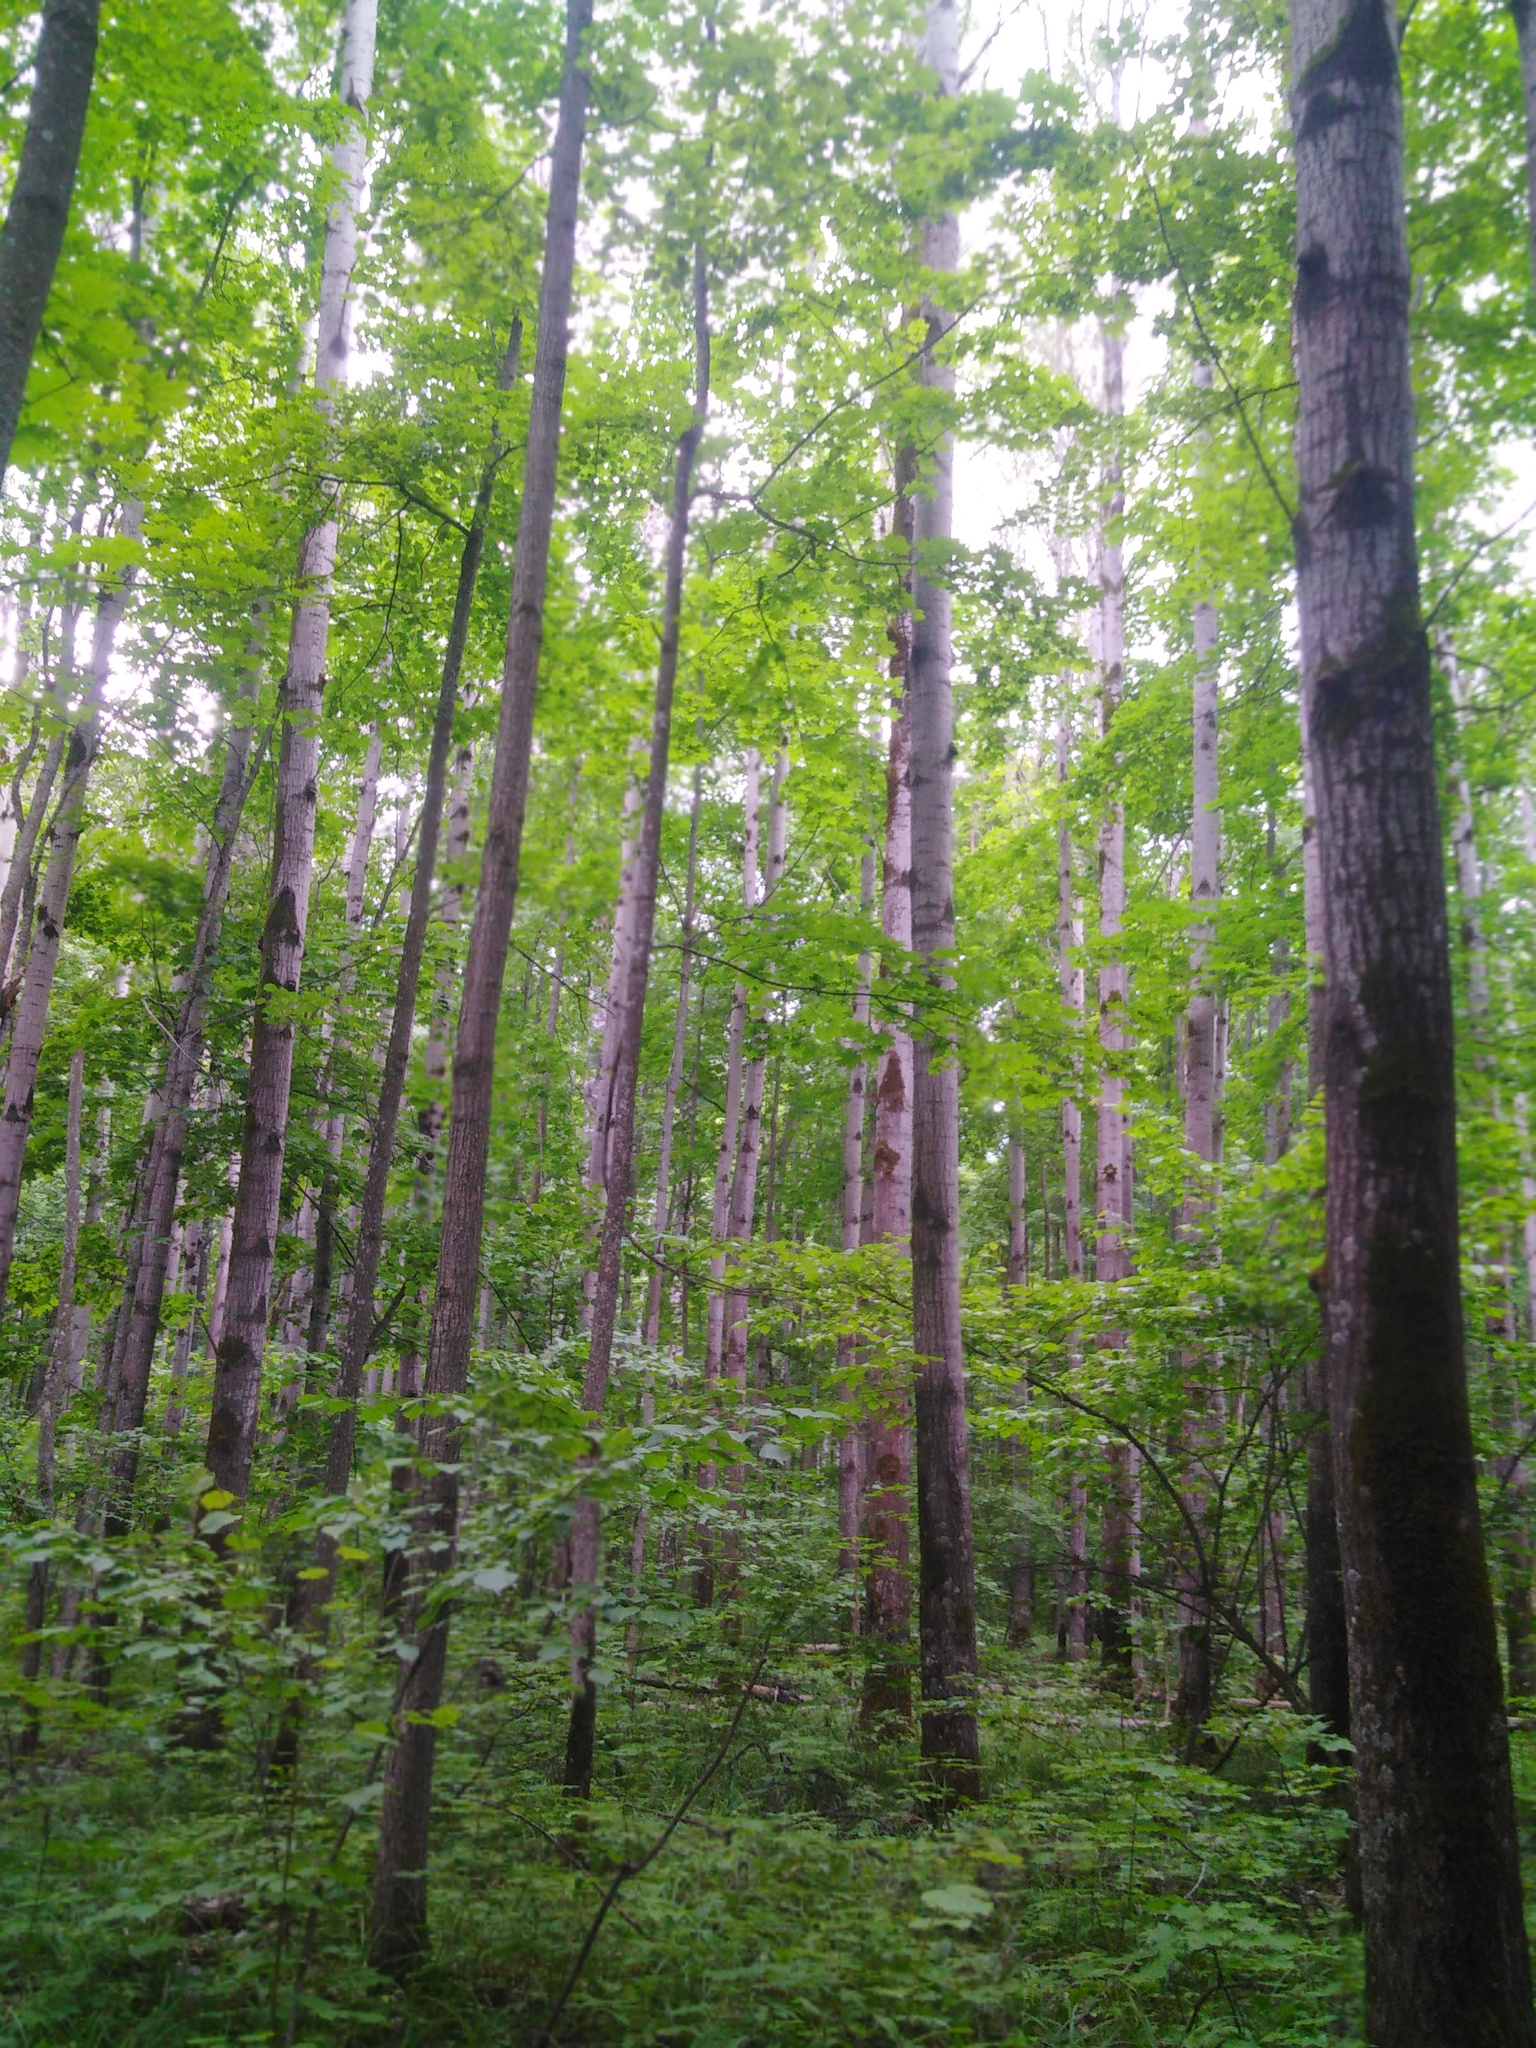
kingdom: Plantae
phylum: Tracheophyta
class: Magnoliopsida
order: Malpighiales
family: Salicaceae
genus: Populus
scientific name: Populus tremula
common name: European aspen
